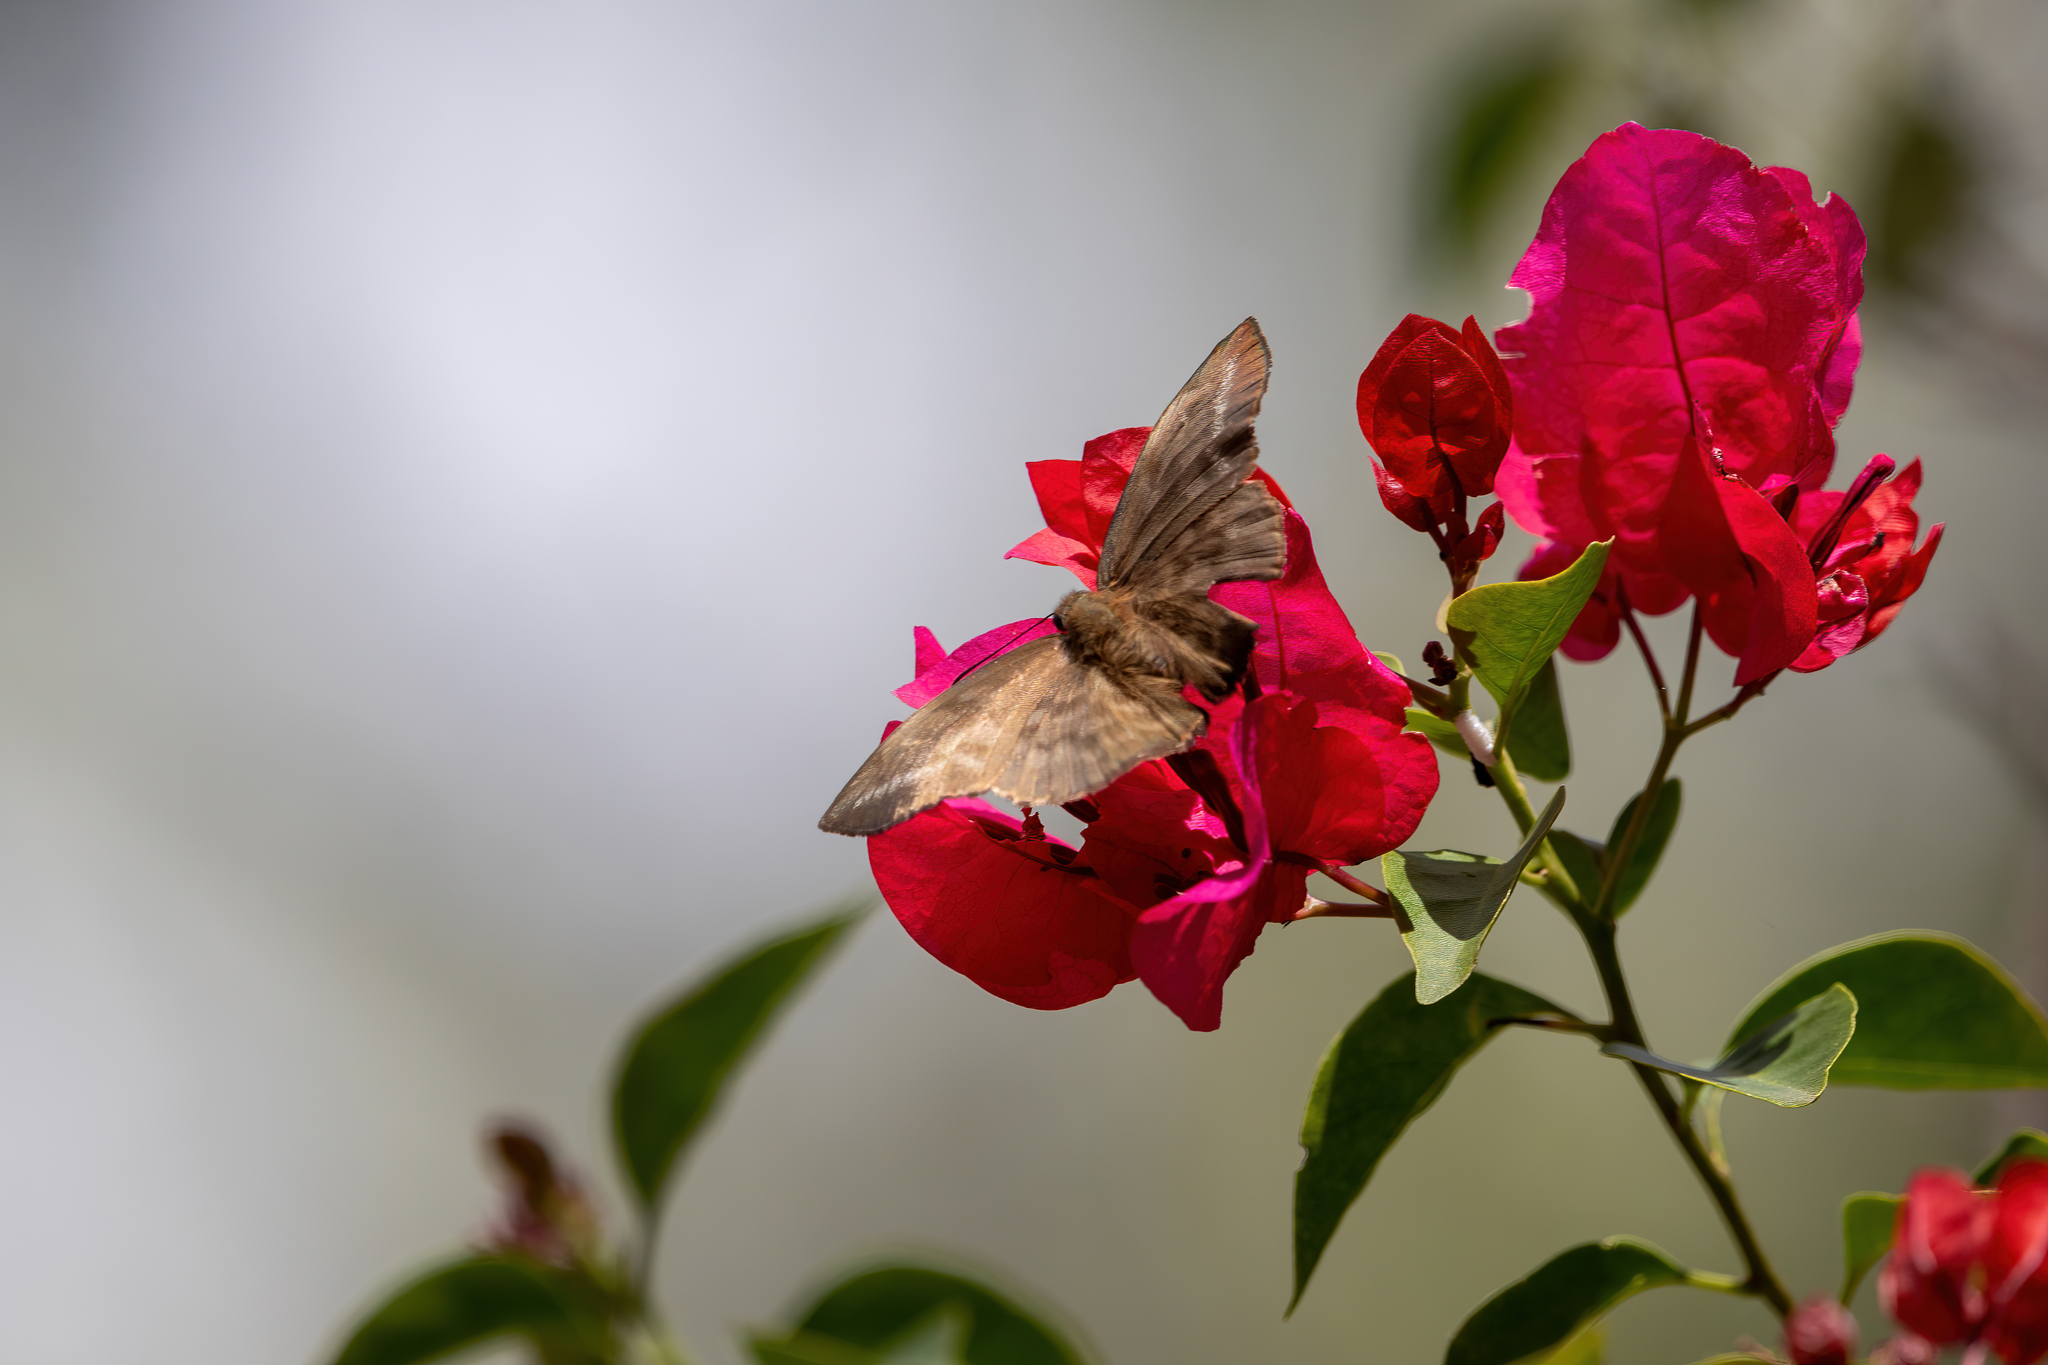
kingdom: Animalia
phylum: Arthropoda
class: Insecta
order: Lepidoptera
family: Hesperiidae
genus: Achlyodes
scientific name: Achlyodes pallida
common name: Pale sicklewing
